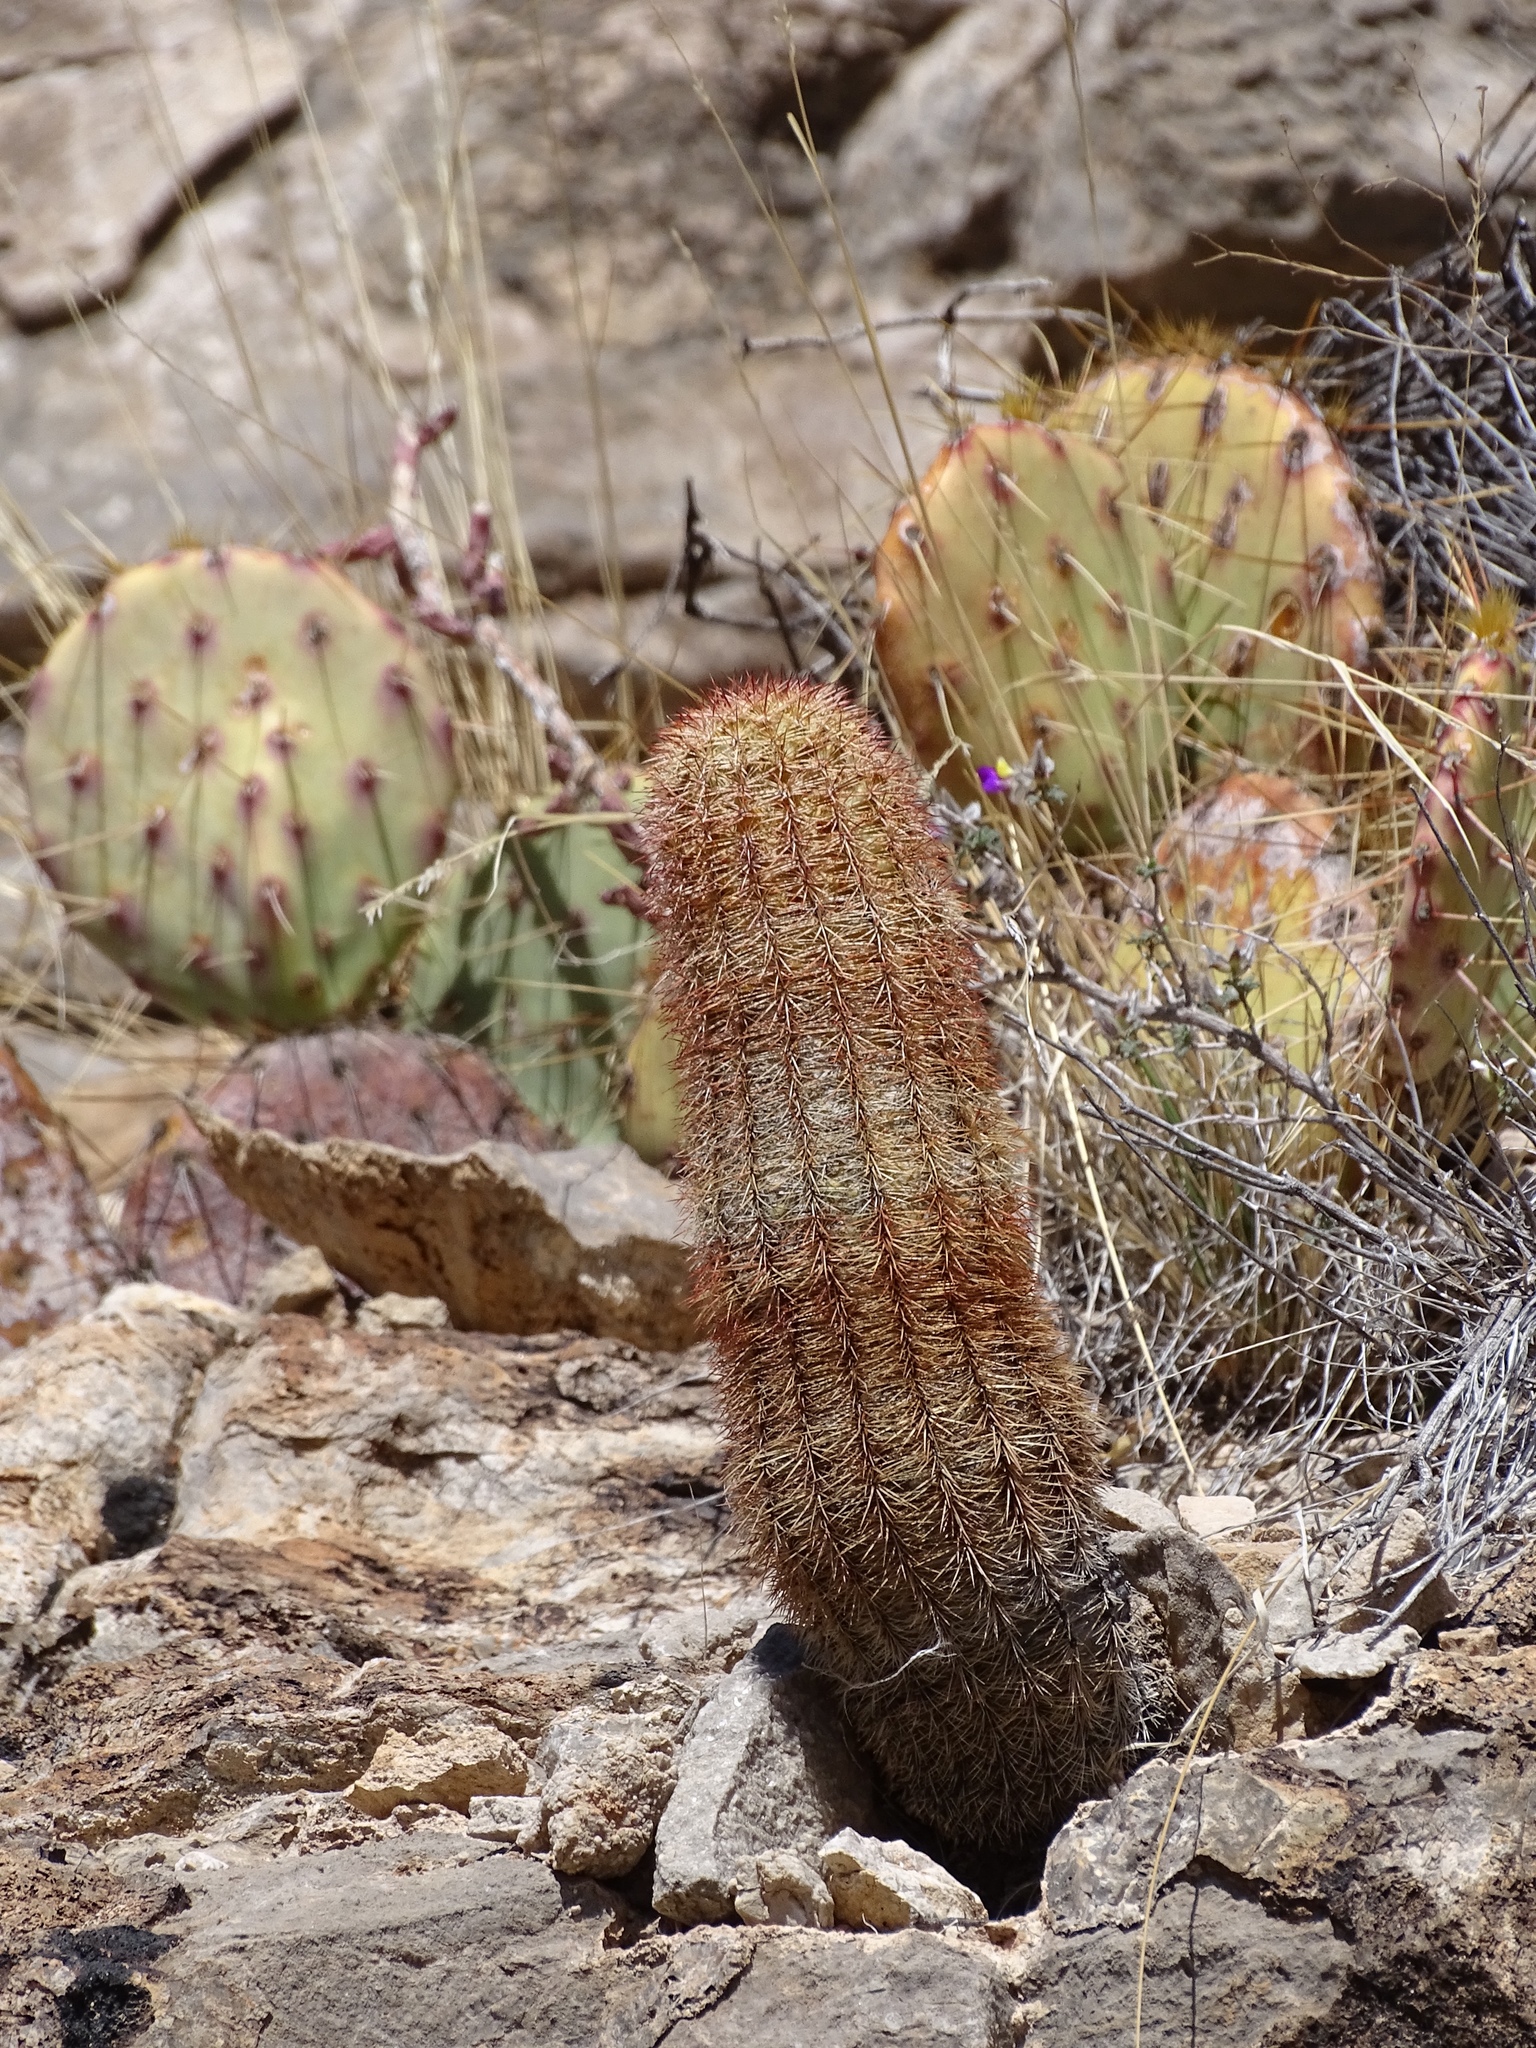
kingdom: Plantae
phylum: Tracheophyta
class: Magnoliopsida
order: Caryophyllales
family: Cactaceae
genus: Echinocereus
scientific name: Echinocereus dasyacanthus
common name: Spiny hedgehog cactus
